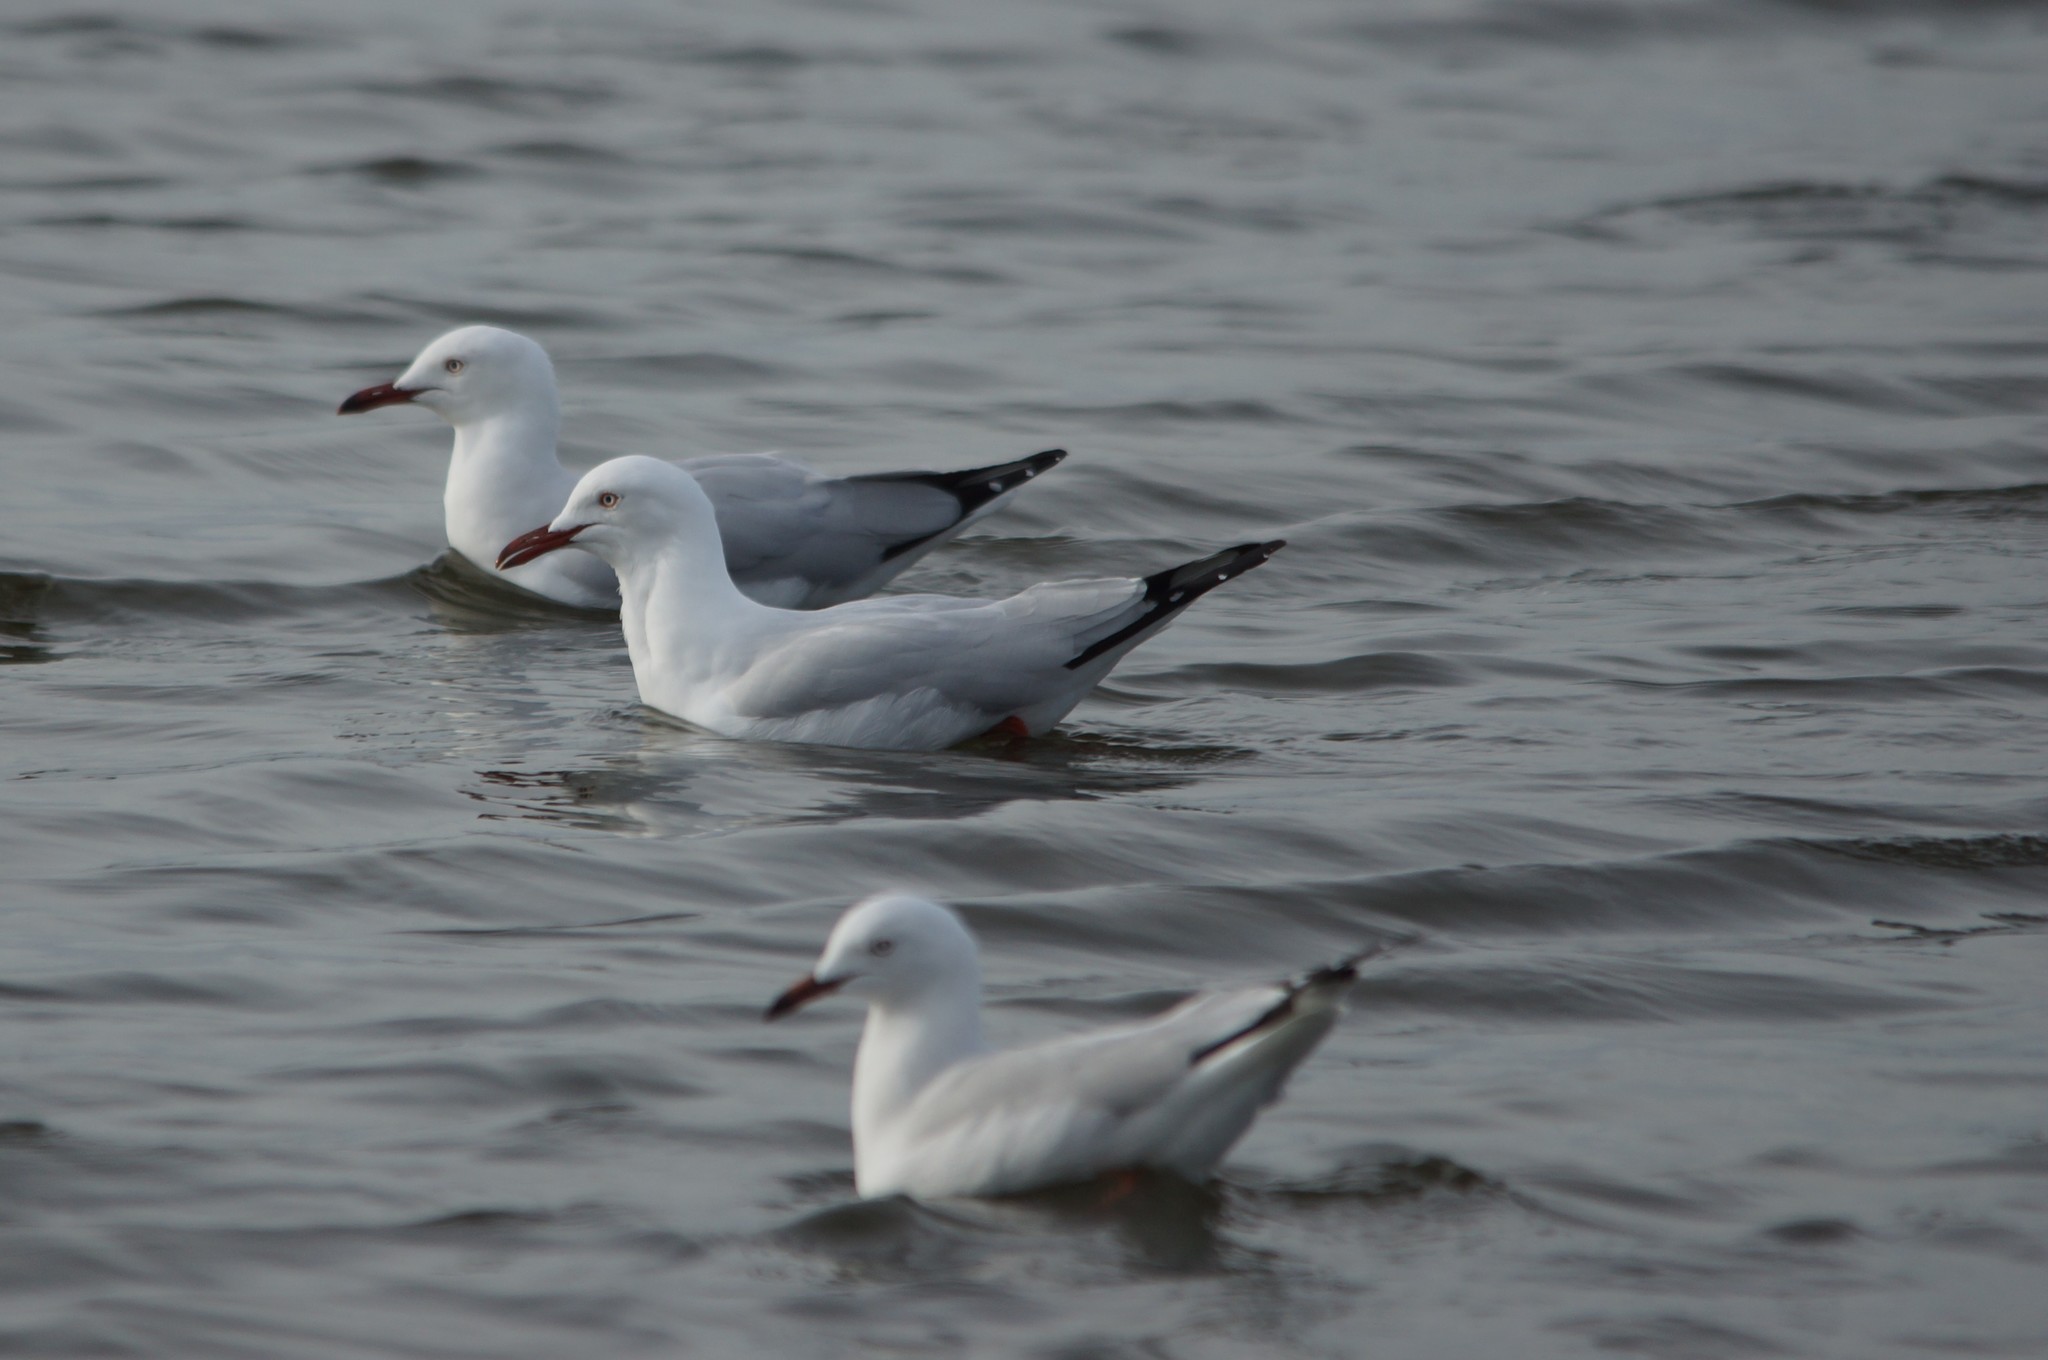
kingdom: Animalia
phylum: Chordata
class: Aves
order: Charadriiformes
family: Laridae
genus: Chroicocephalus
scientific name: Chroicocephalus novaehollandiae
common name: Silver gull
